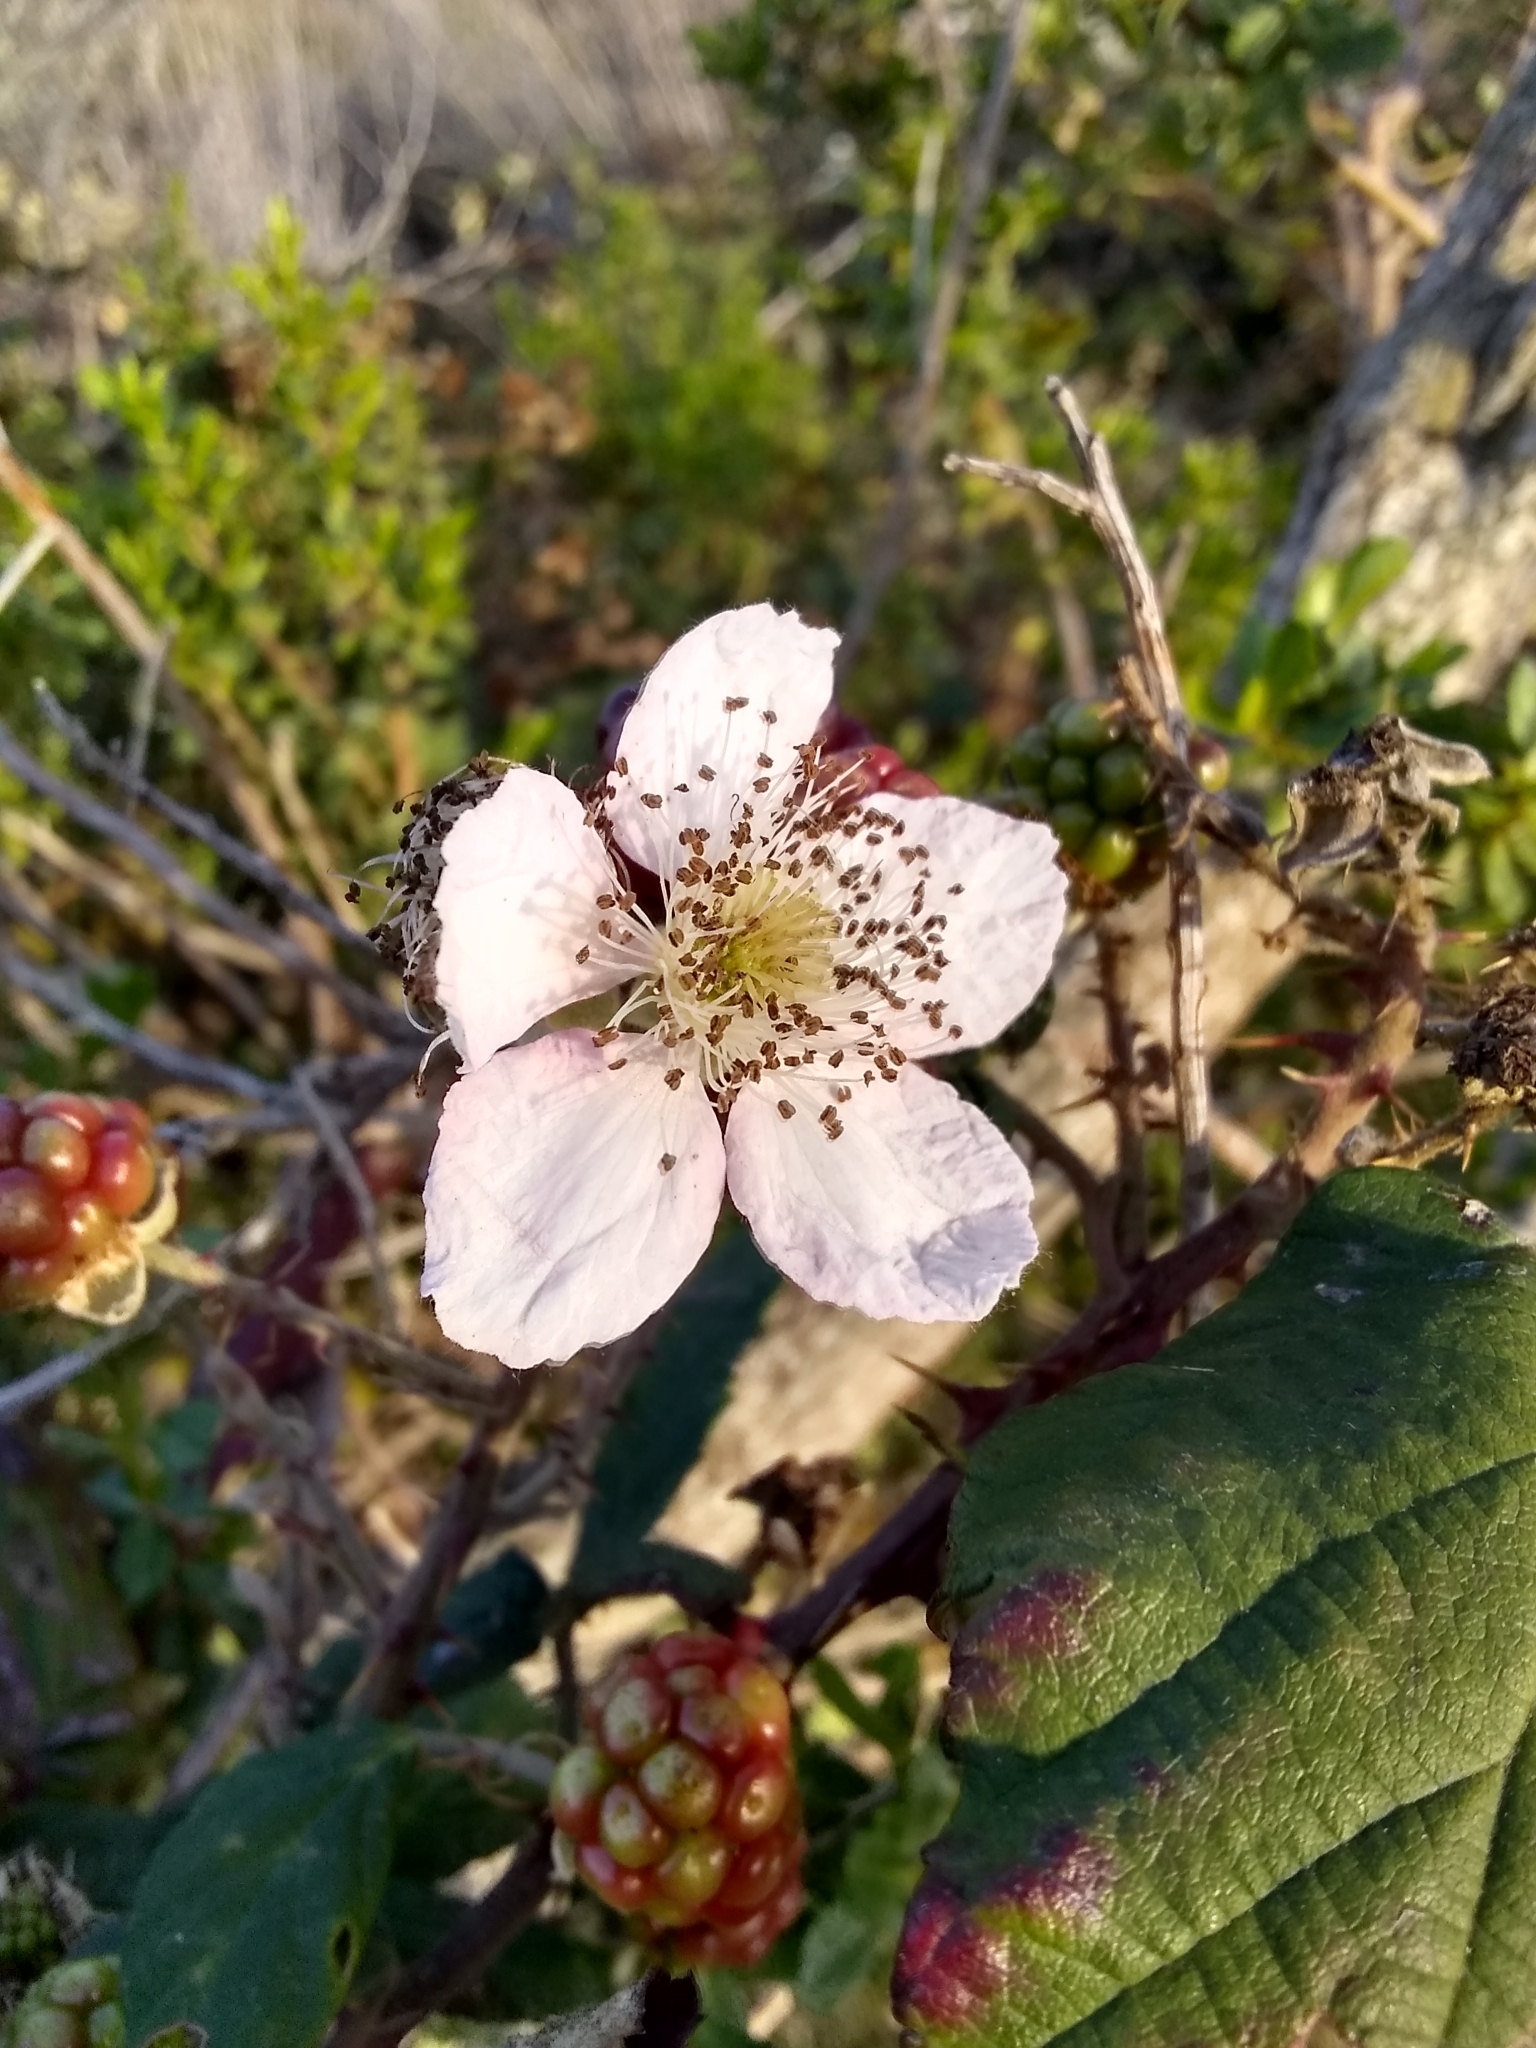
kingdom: Plantae
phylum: Tracheophyta
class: Magnoliopsida
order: Rosales
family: Rosaceae
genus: Rubus
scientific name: Rubus armeniacus
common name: Himalayan blackberry
